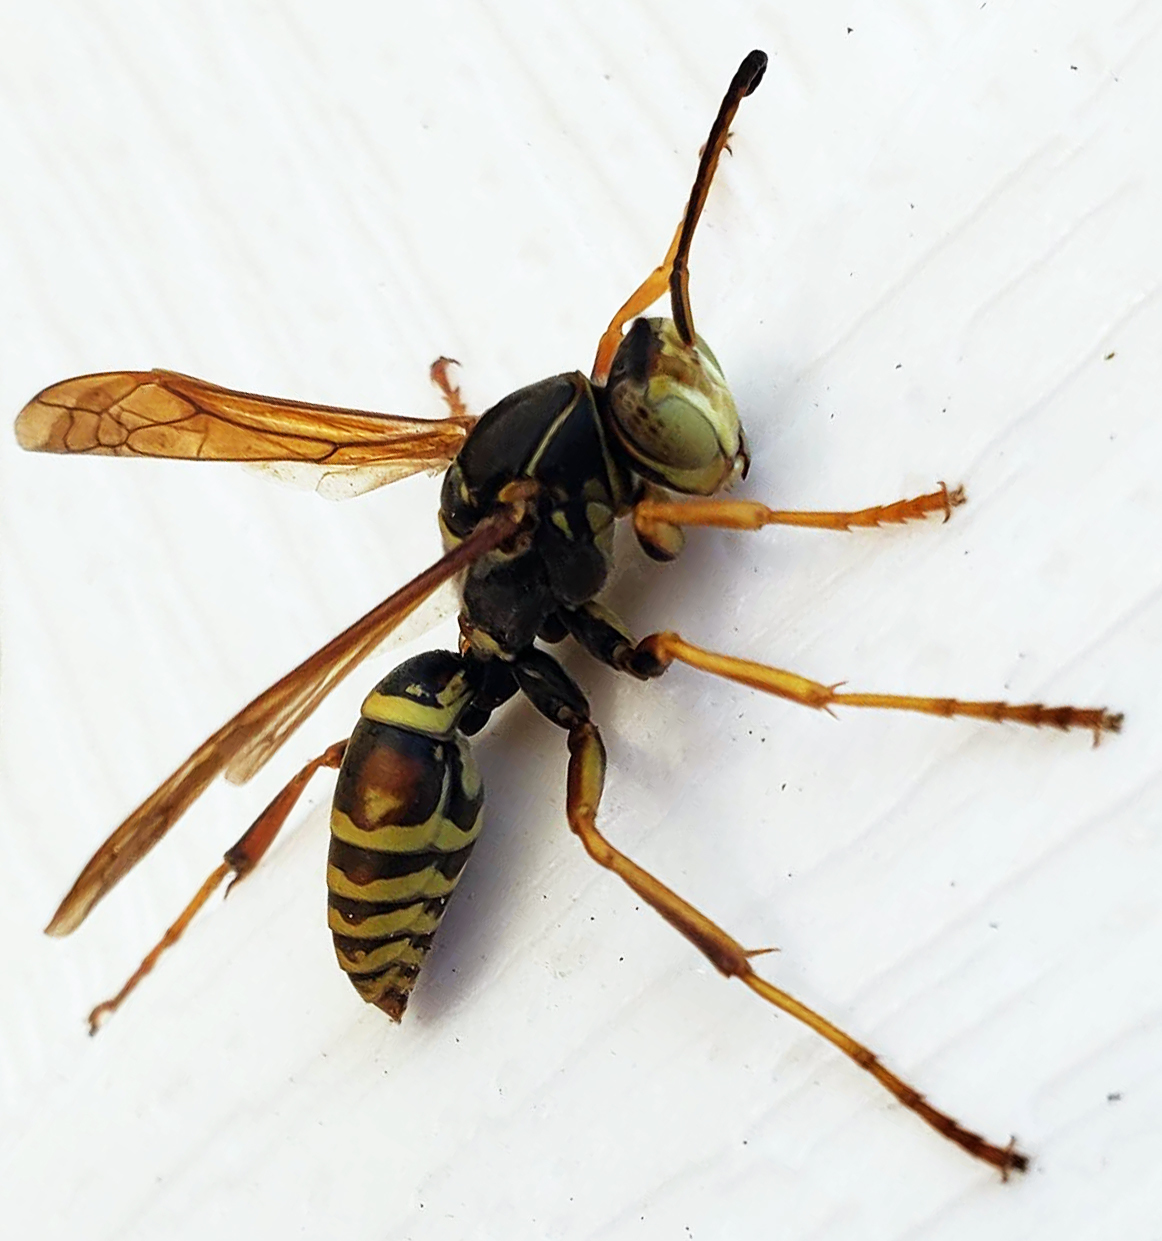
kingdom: Animalia
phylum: Arthropoda
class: Insecta
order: Hymenoptera
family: Eumenidae
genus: Polistes
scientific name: Polistes fuscatus
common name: Dark paper wasp
